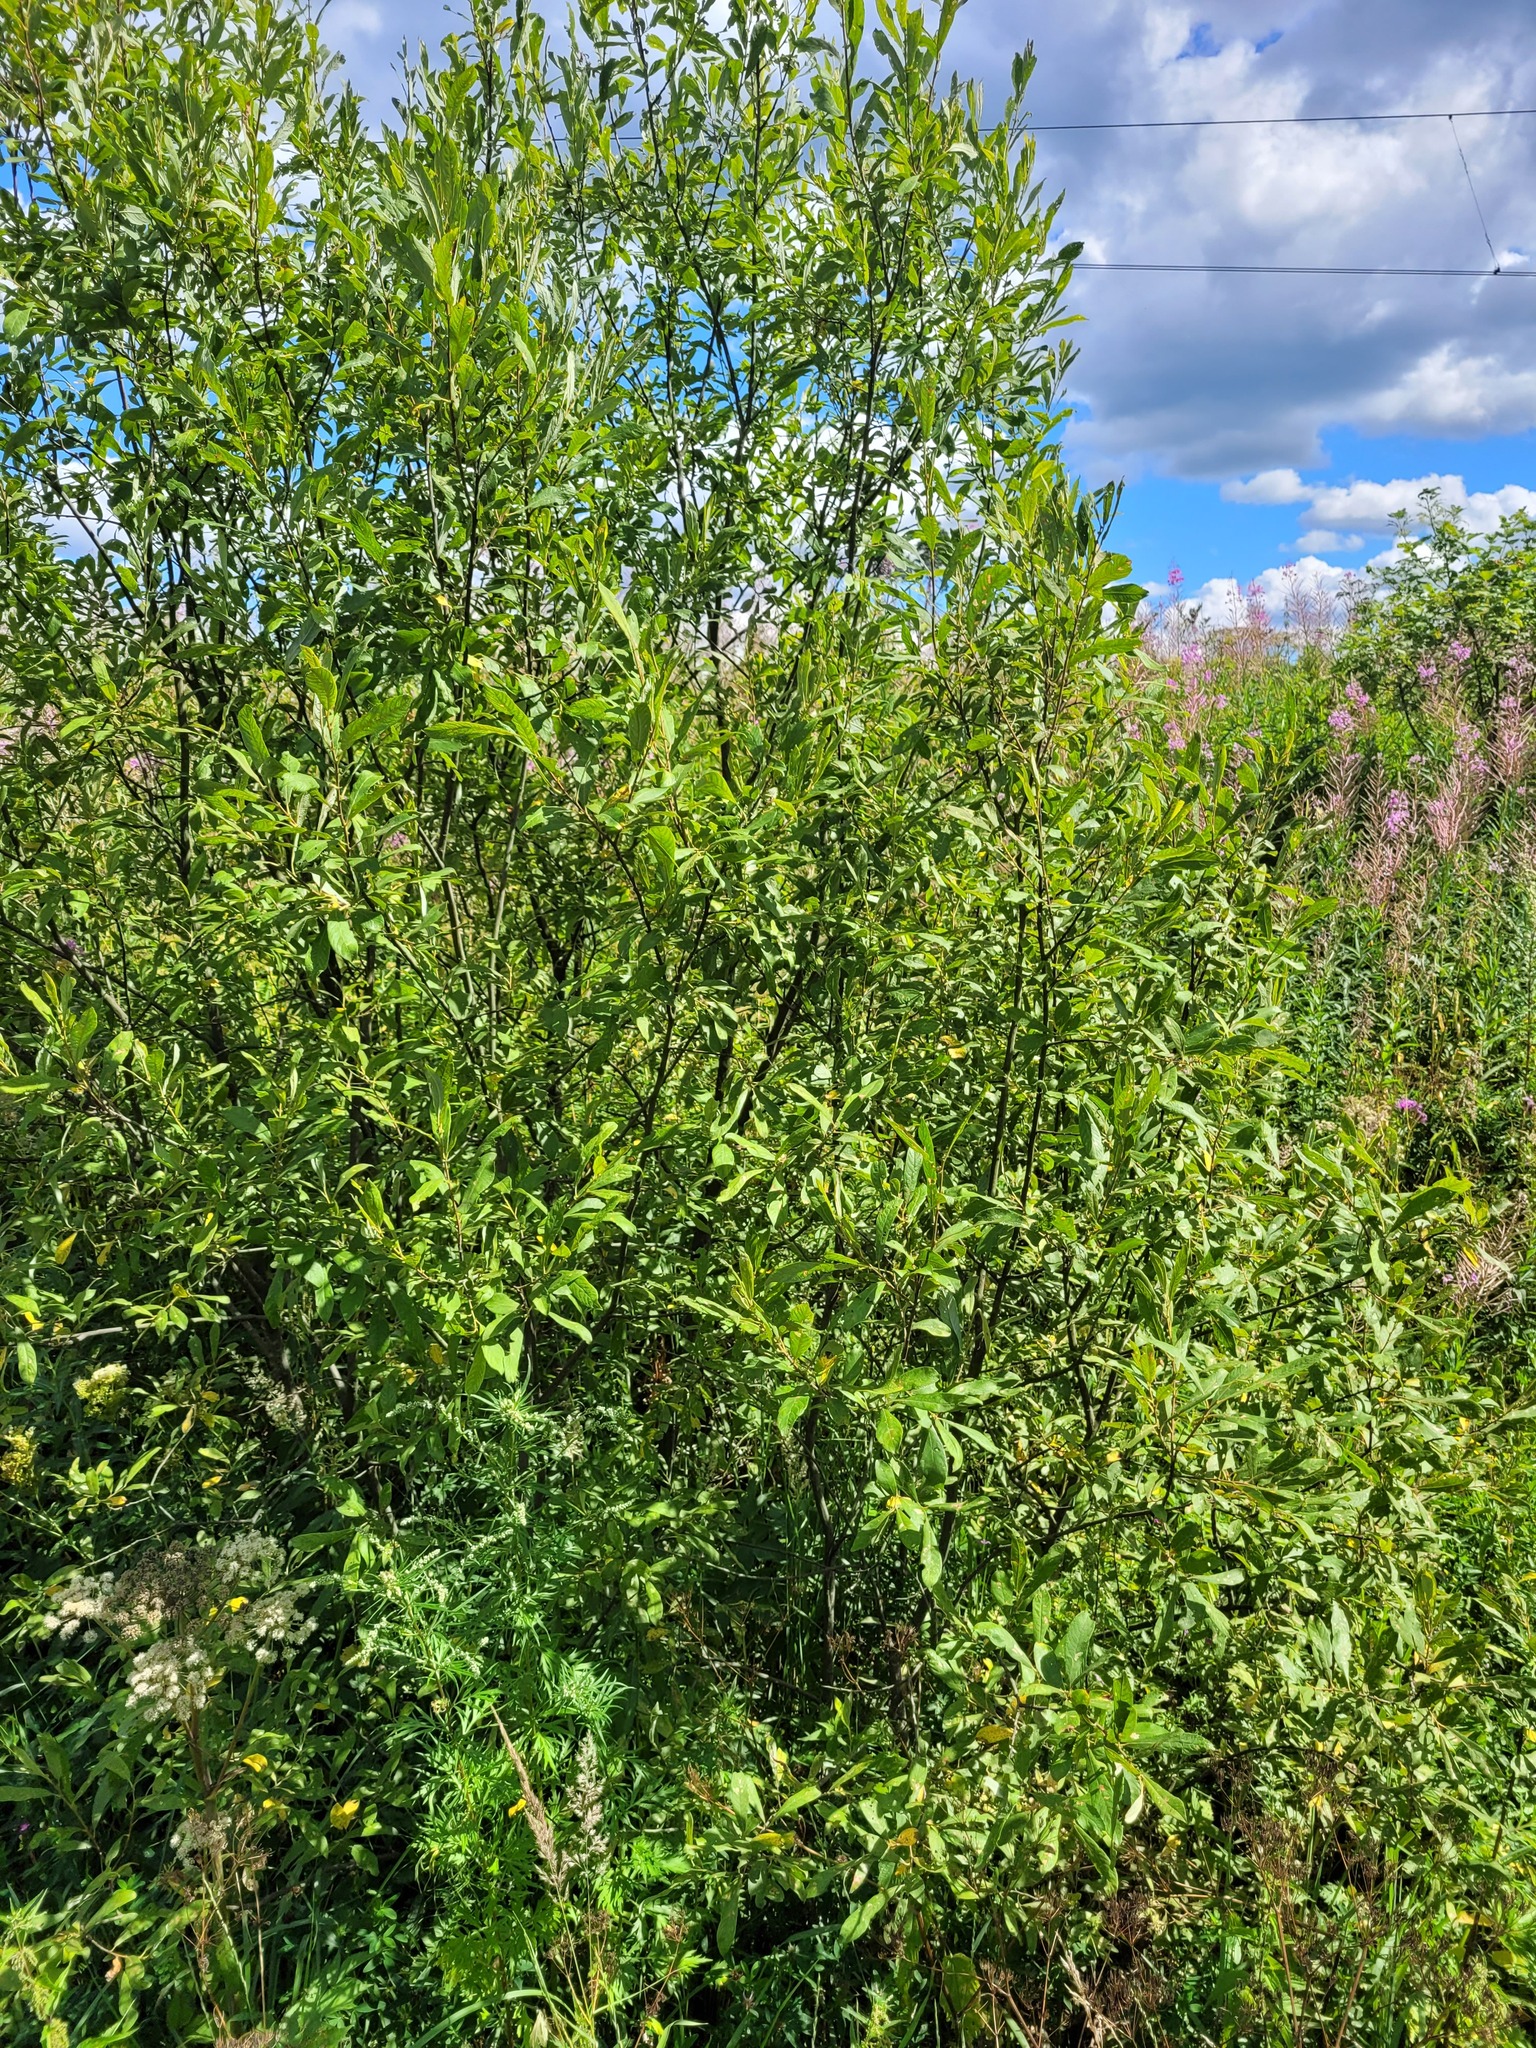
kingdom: Plantae
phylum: Tracheophyta
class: Magnoliopsida
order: Malpighiales
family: Salicaceae
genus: Salix
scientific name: Salix cinerea
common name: Common sallow
